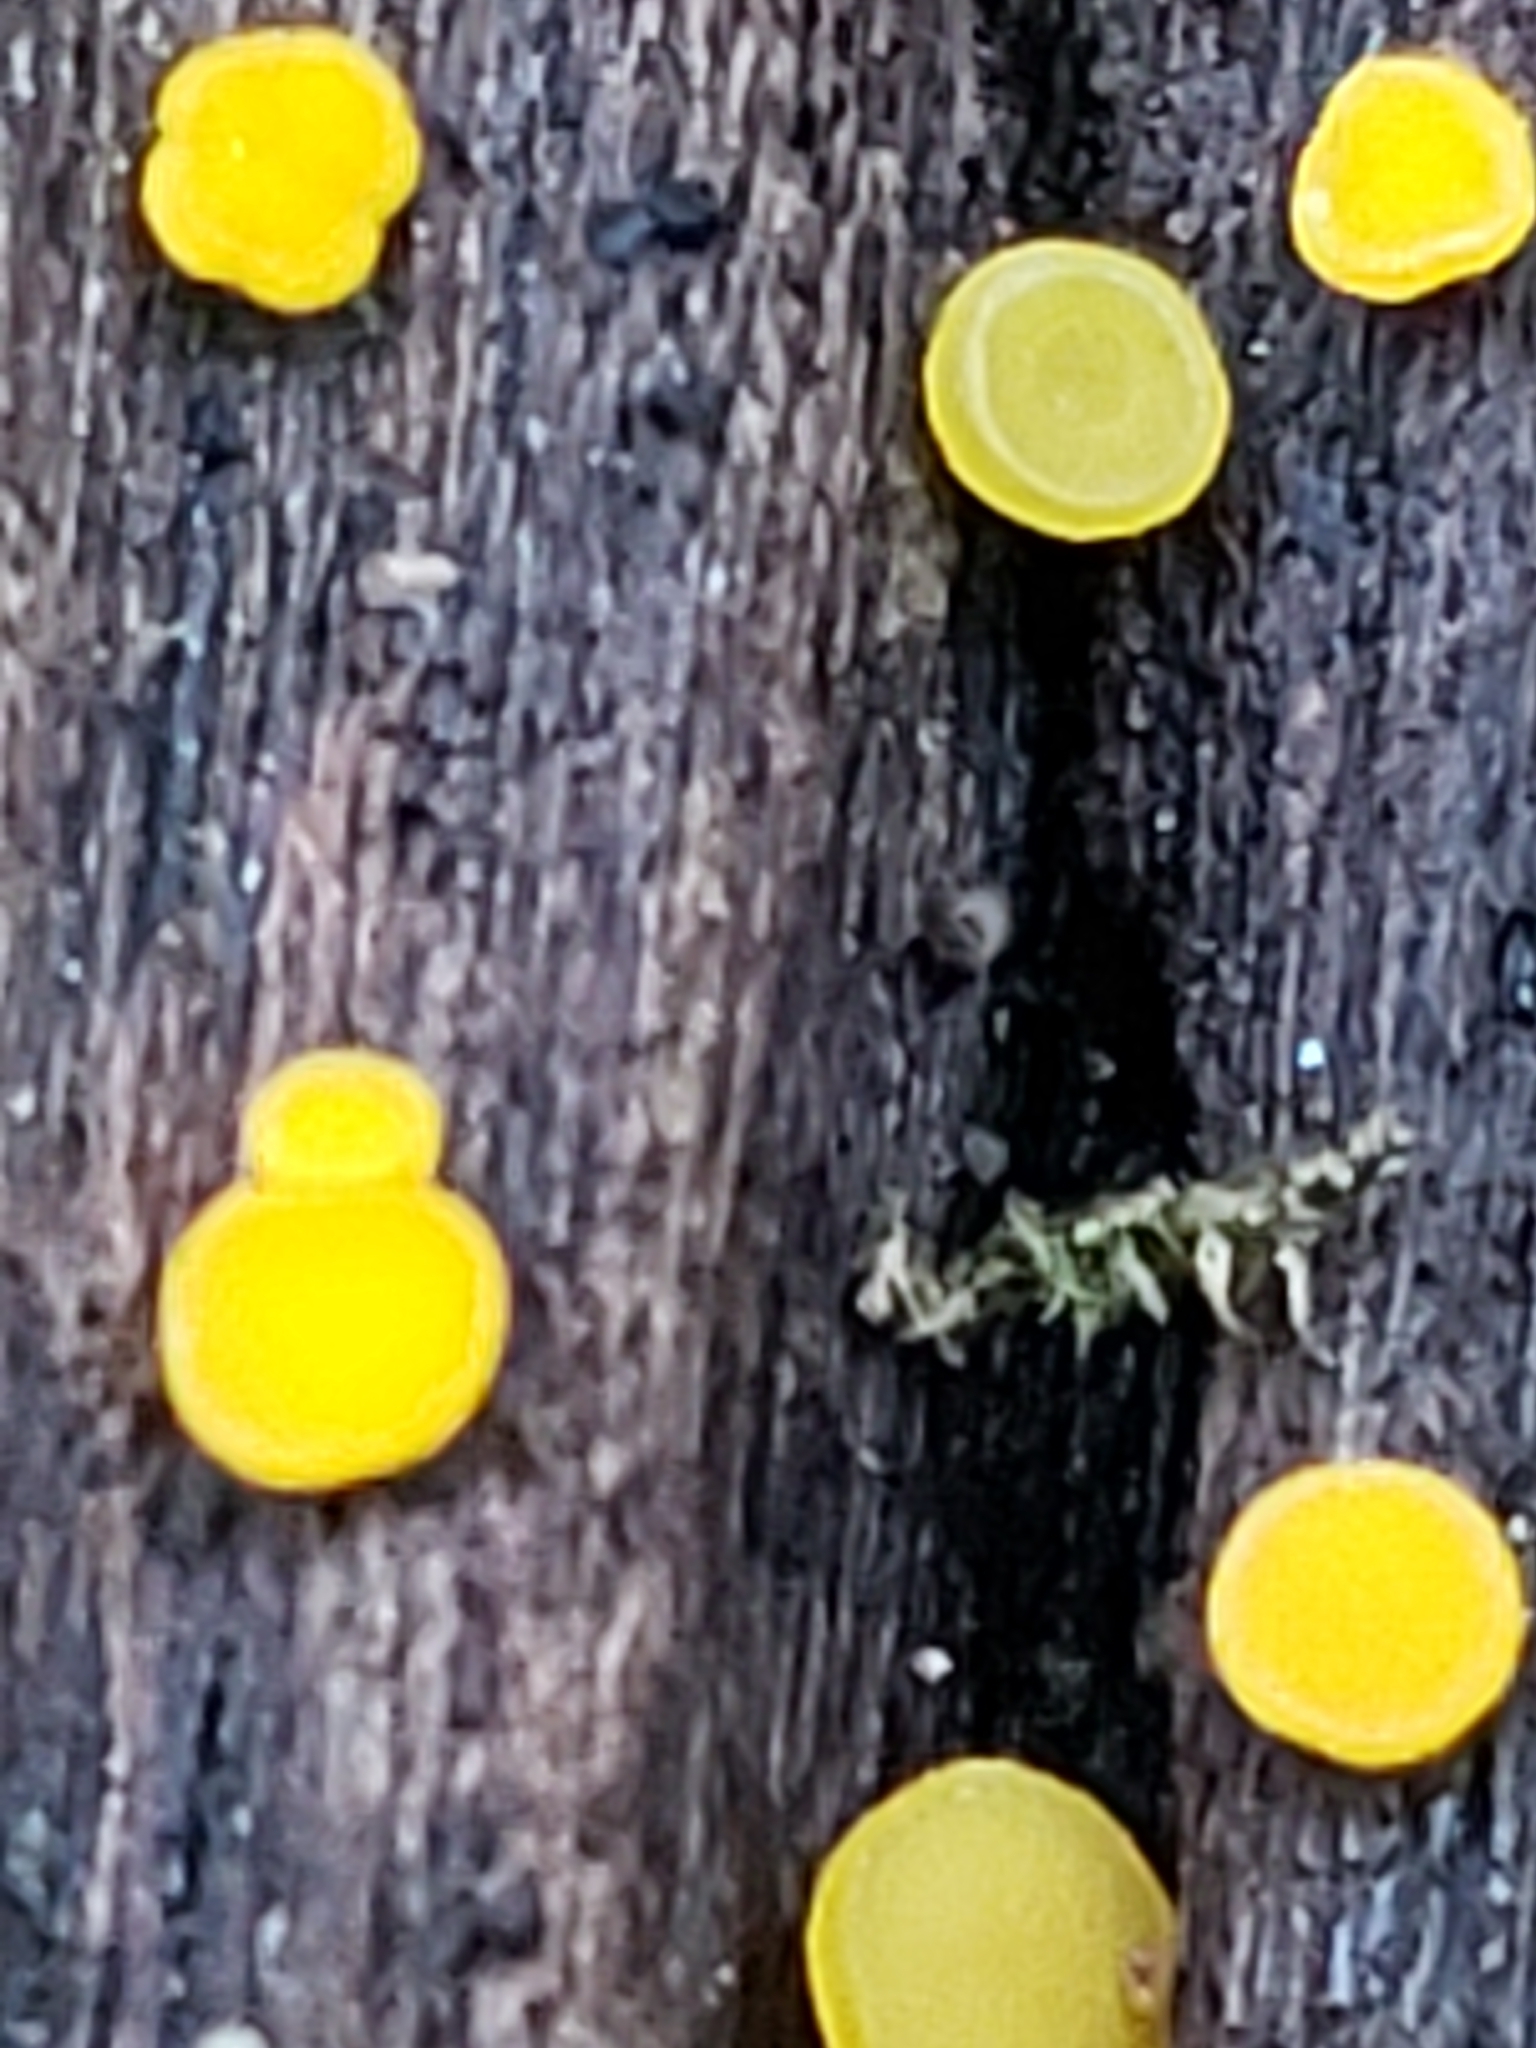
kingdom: Fungi
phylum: Ascomycota
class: Leotiomycetes
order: Helotiales
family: Pezizellaceae
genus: Calycina
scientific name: Calycina citrina
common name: Yellow fairy cups
